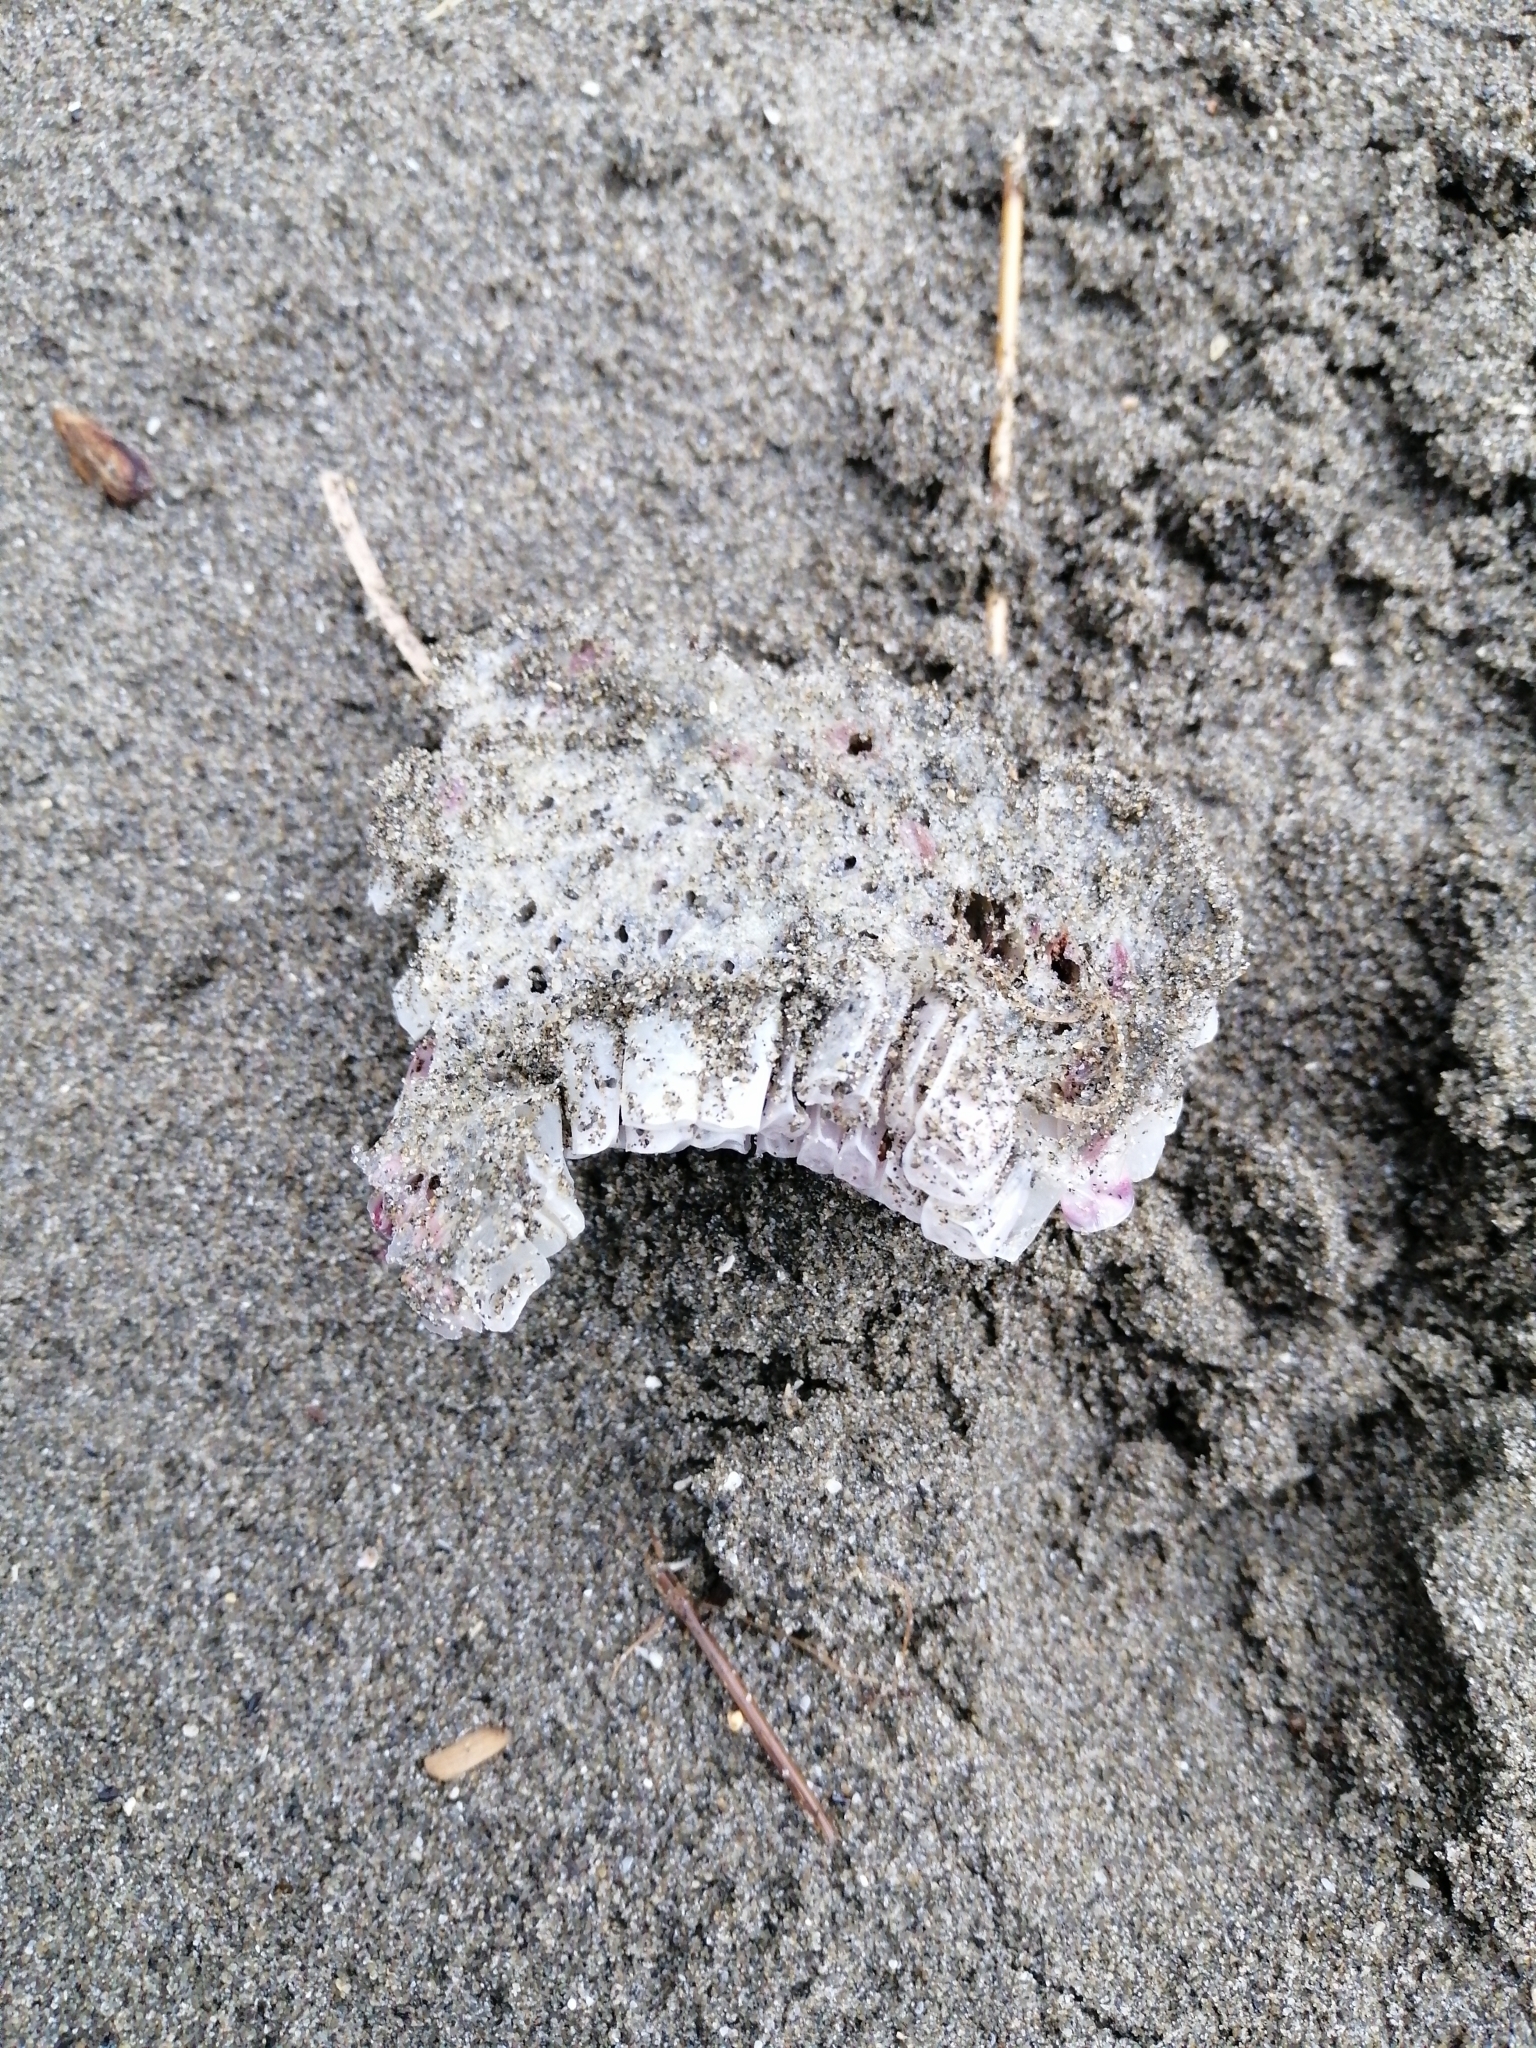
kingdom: Animalia
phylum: Mollusca
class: Gastropoda
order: Neogastropoda
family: Muricidae
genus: Dicathais
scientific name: Dicathais orbita
